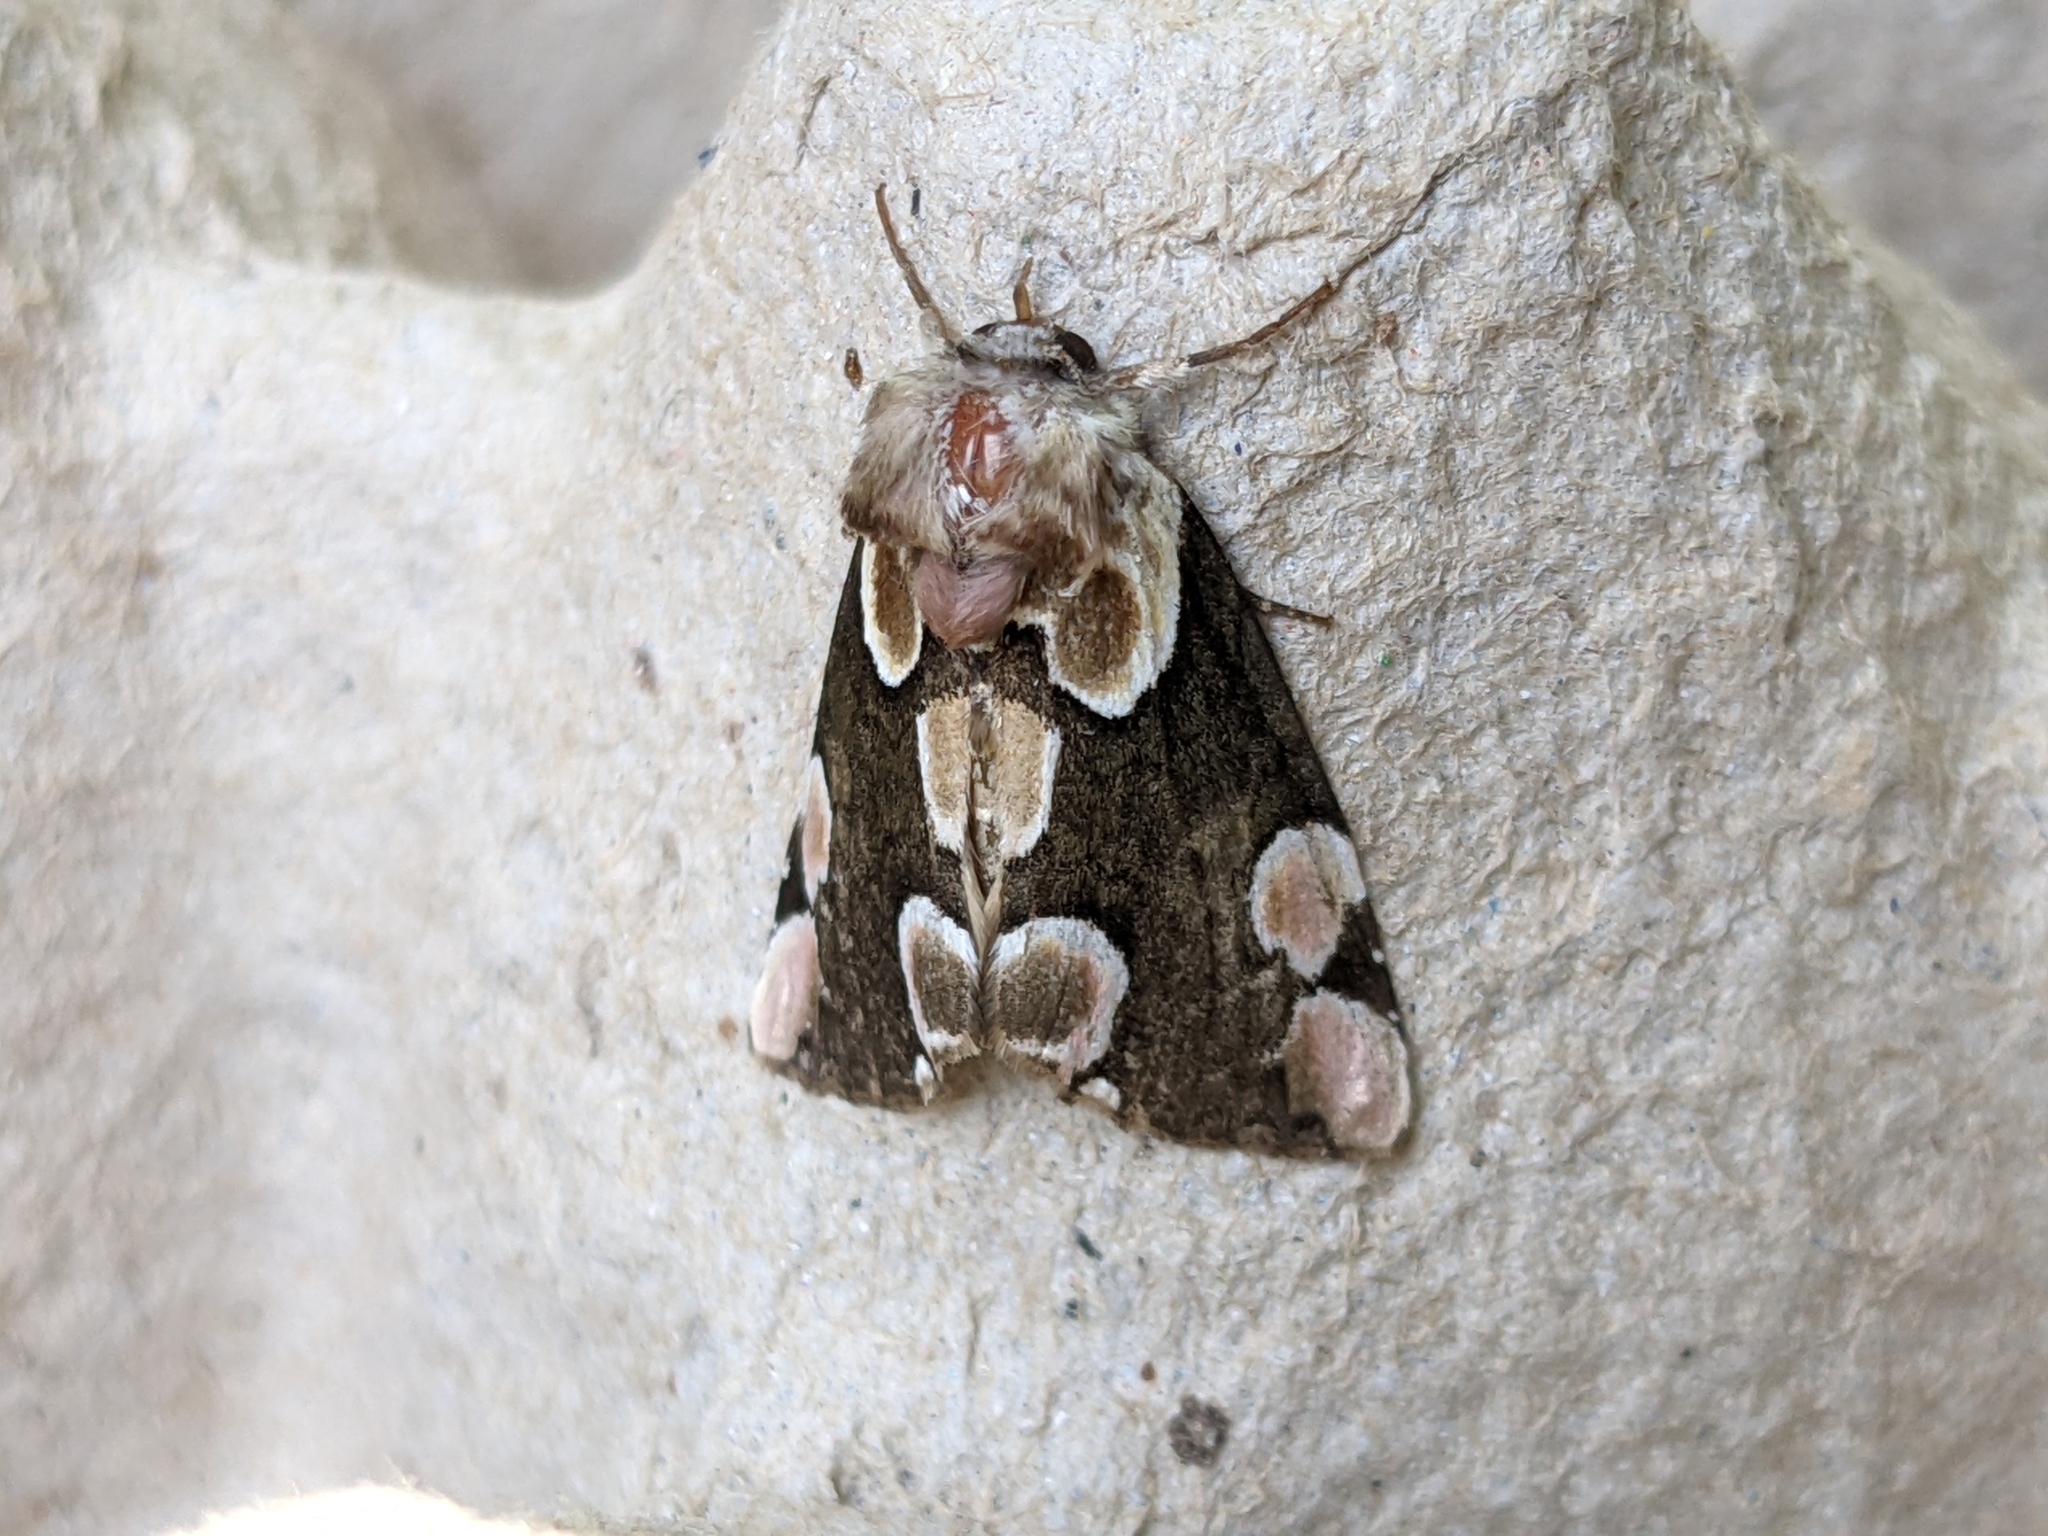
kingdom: Animalia
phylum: Arthropoda
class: Insecta
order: Lepidoptera
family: Drepanidae
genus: Thyatira
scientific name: Thyatira batis
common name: Peach blossom
